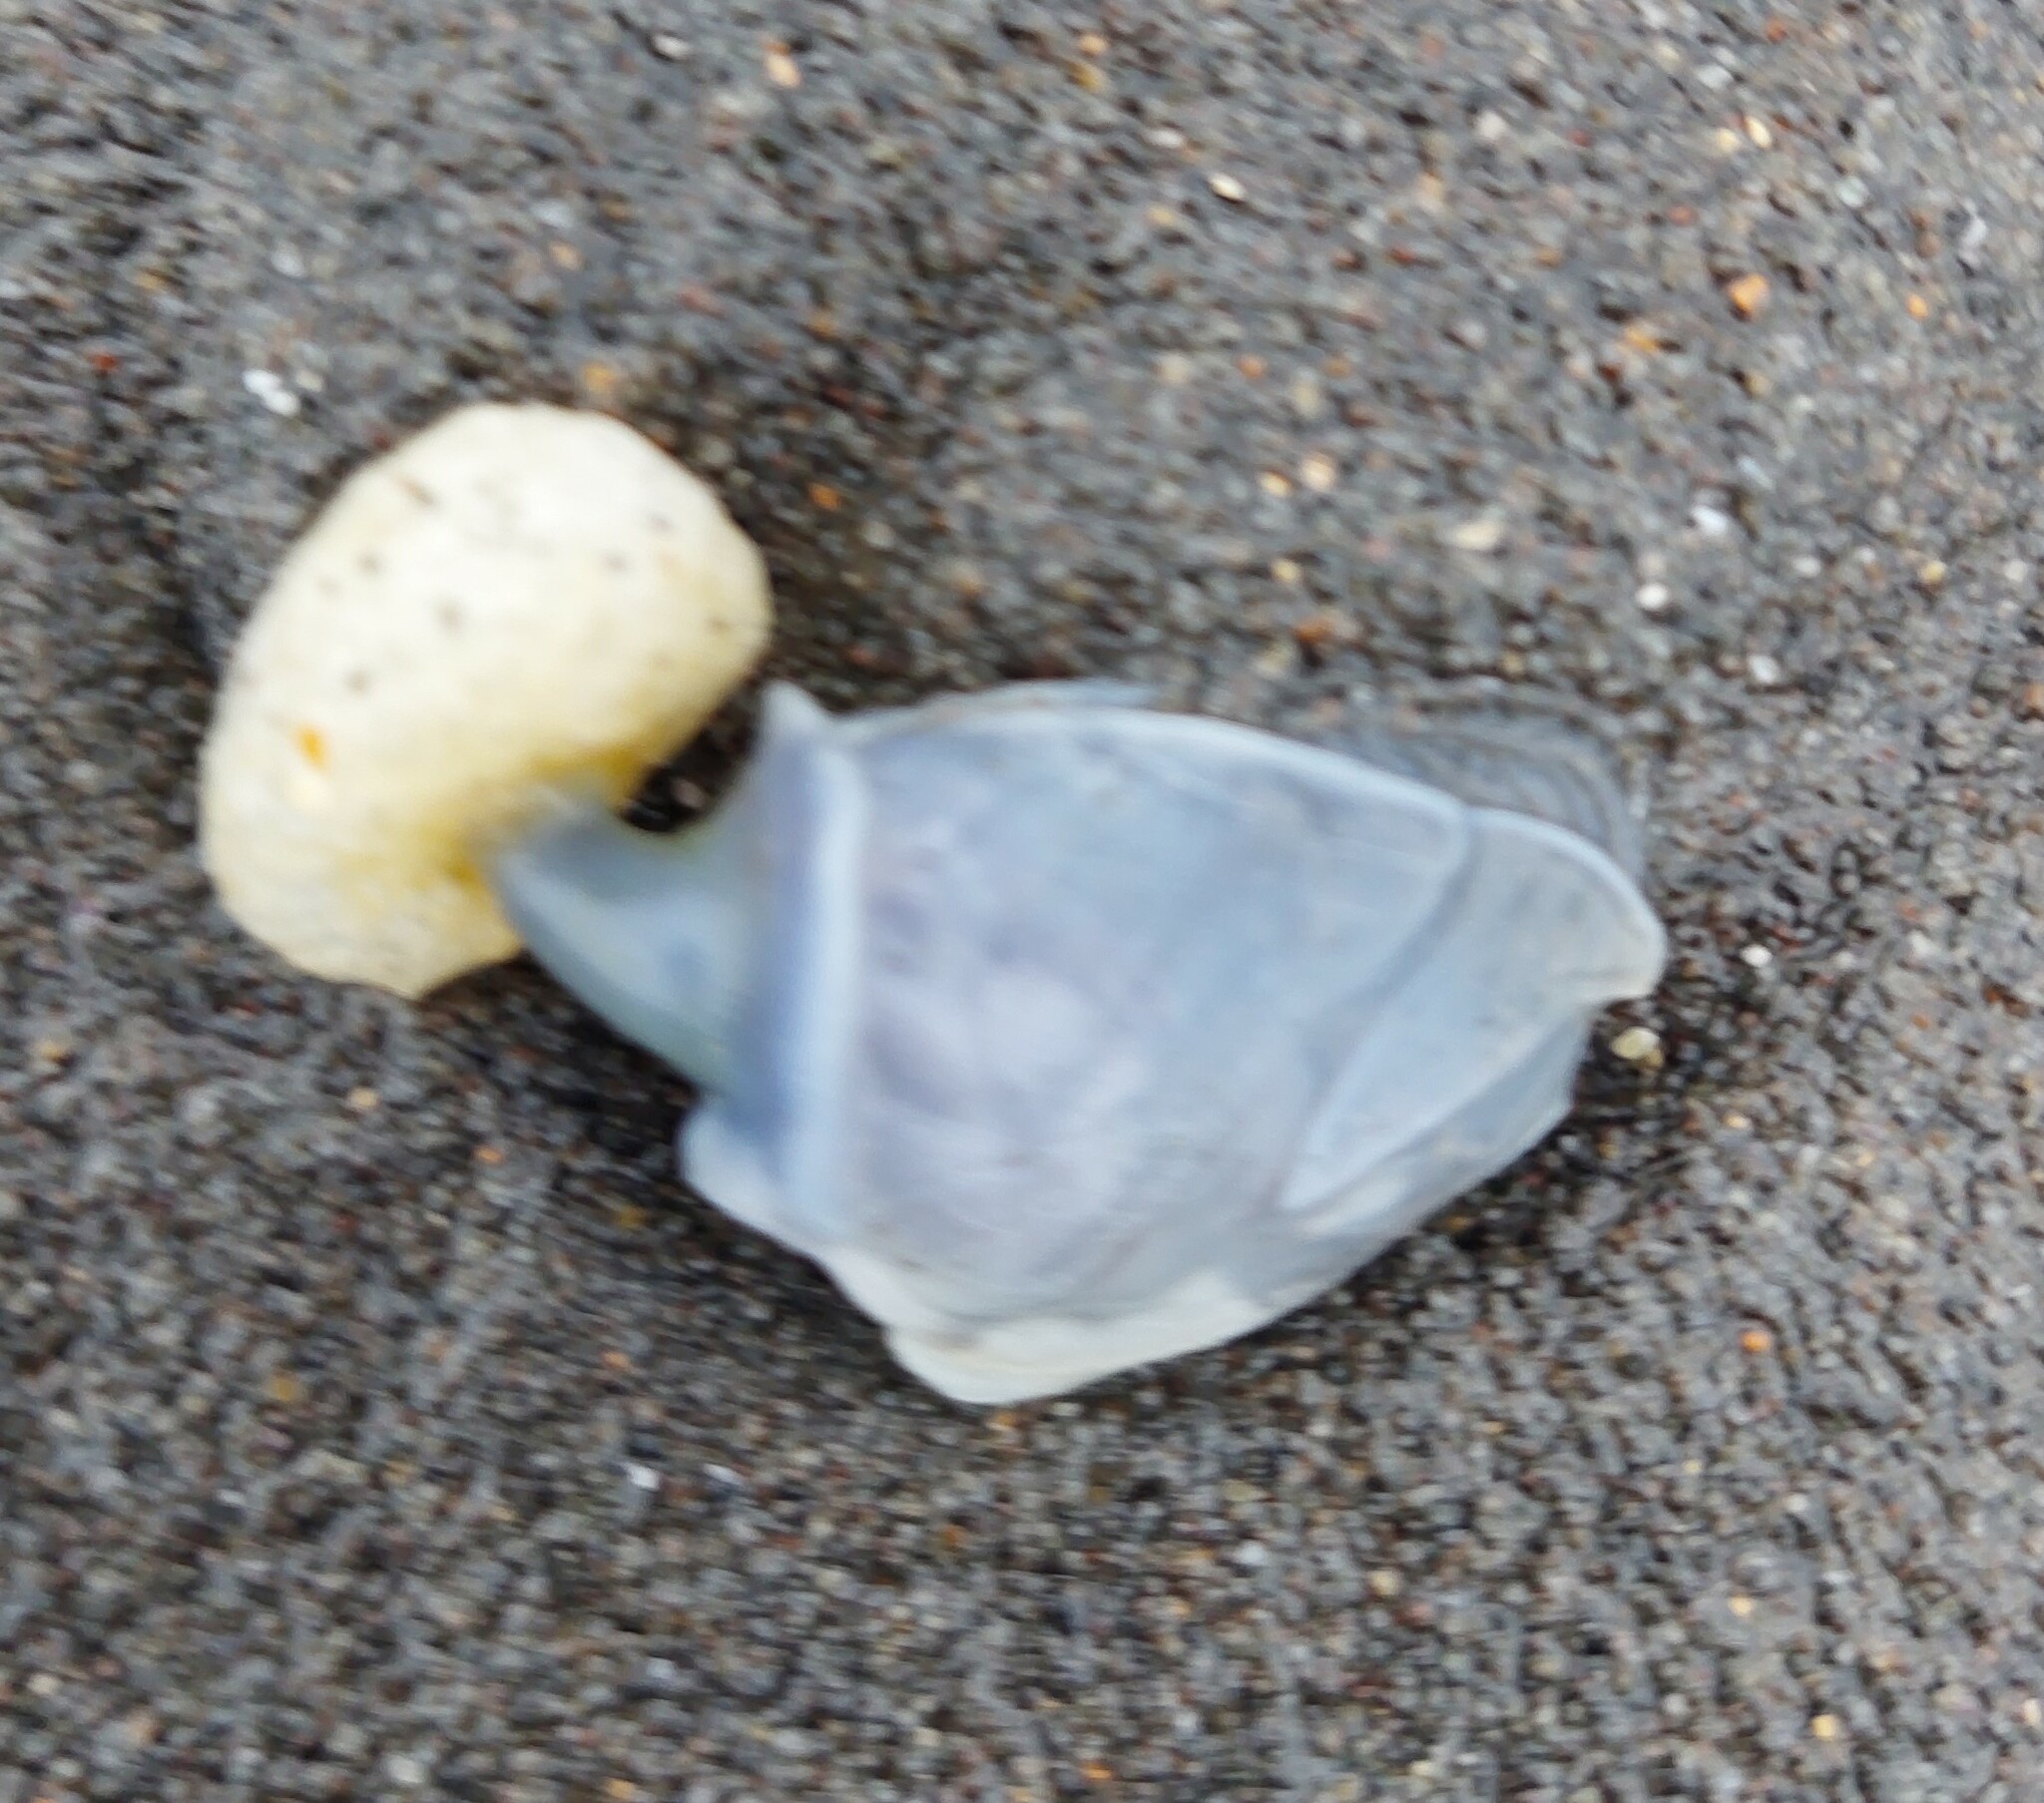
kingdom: Animalia
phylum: Arthropoda
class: Maxillopoda
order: Pedunculata
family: Lepadidae
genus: Dosima
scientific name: Dosima fascicularis
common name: Buoy barnacle
